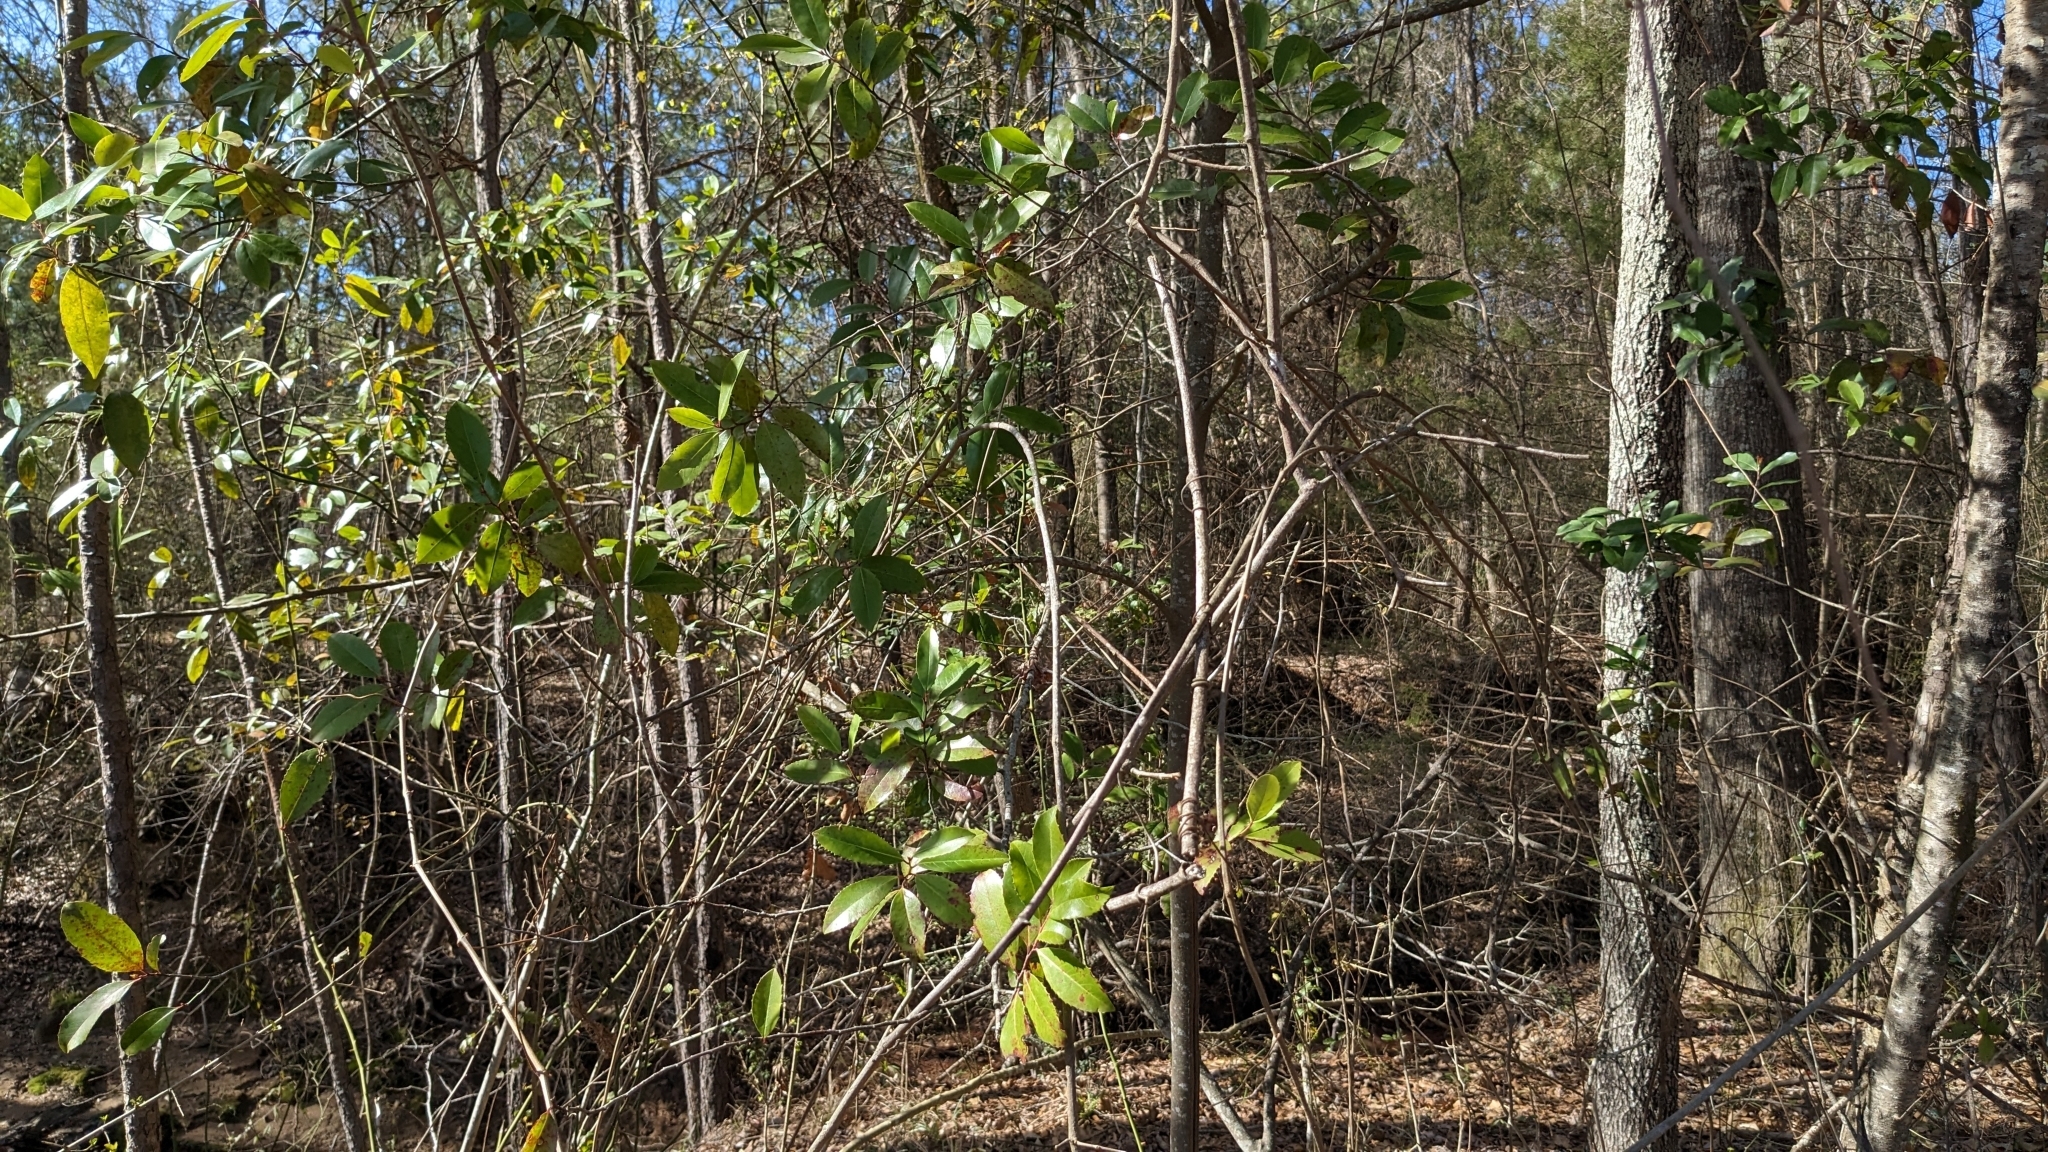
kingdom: Plantae
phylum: Tracheophyta
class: Magnoliopsida
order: Rosales
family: Rosaceae
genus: Prunus
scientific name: Prunus caroliniana
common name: Carolina laurel cherry
